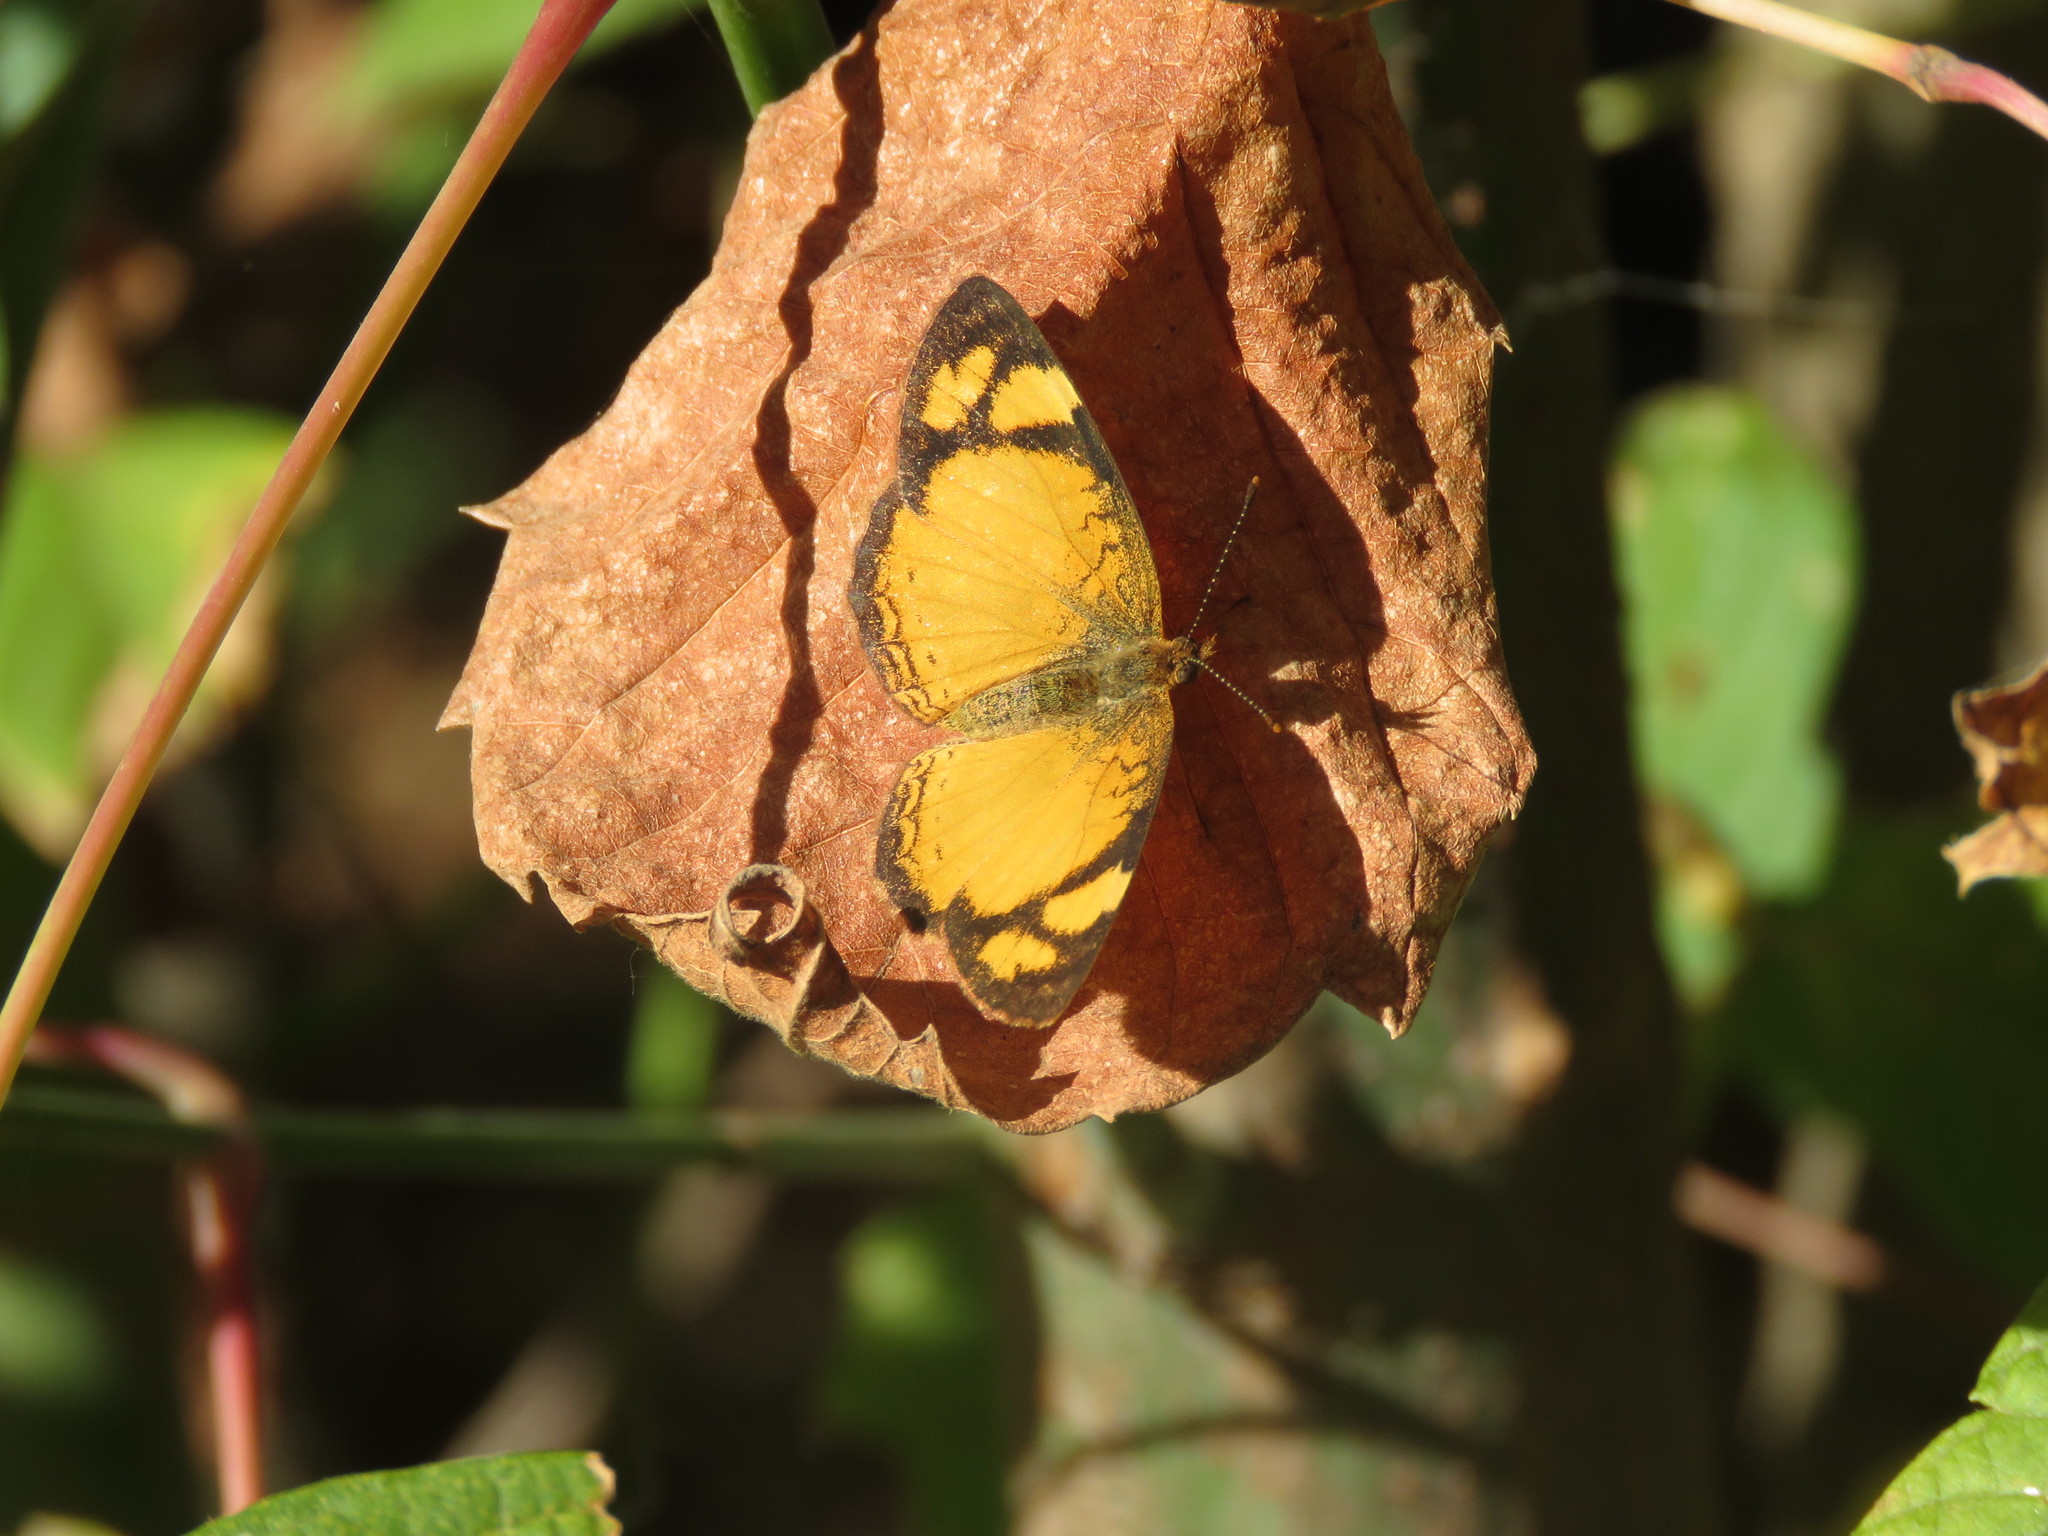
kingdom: Animalia
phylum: Arthropoda
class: Insecta
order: Lepidoptera
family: Nymphalidae
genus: Tegosa
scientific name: Tegosa claudina
